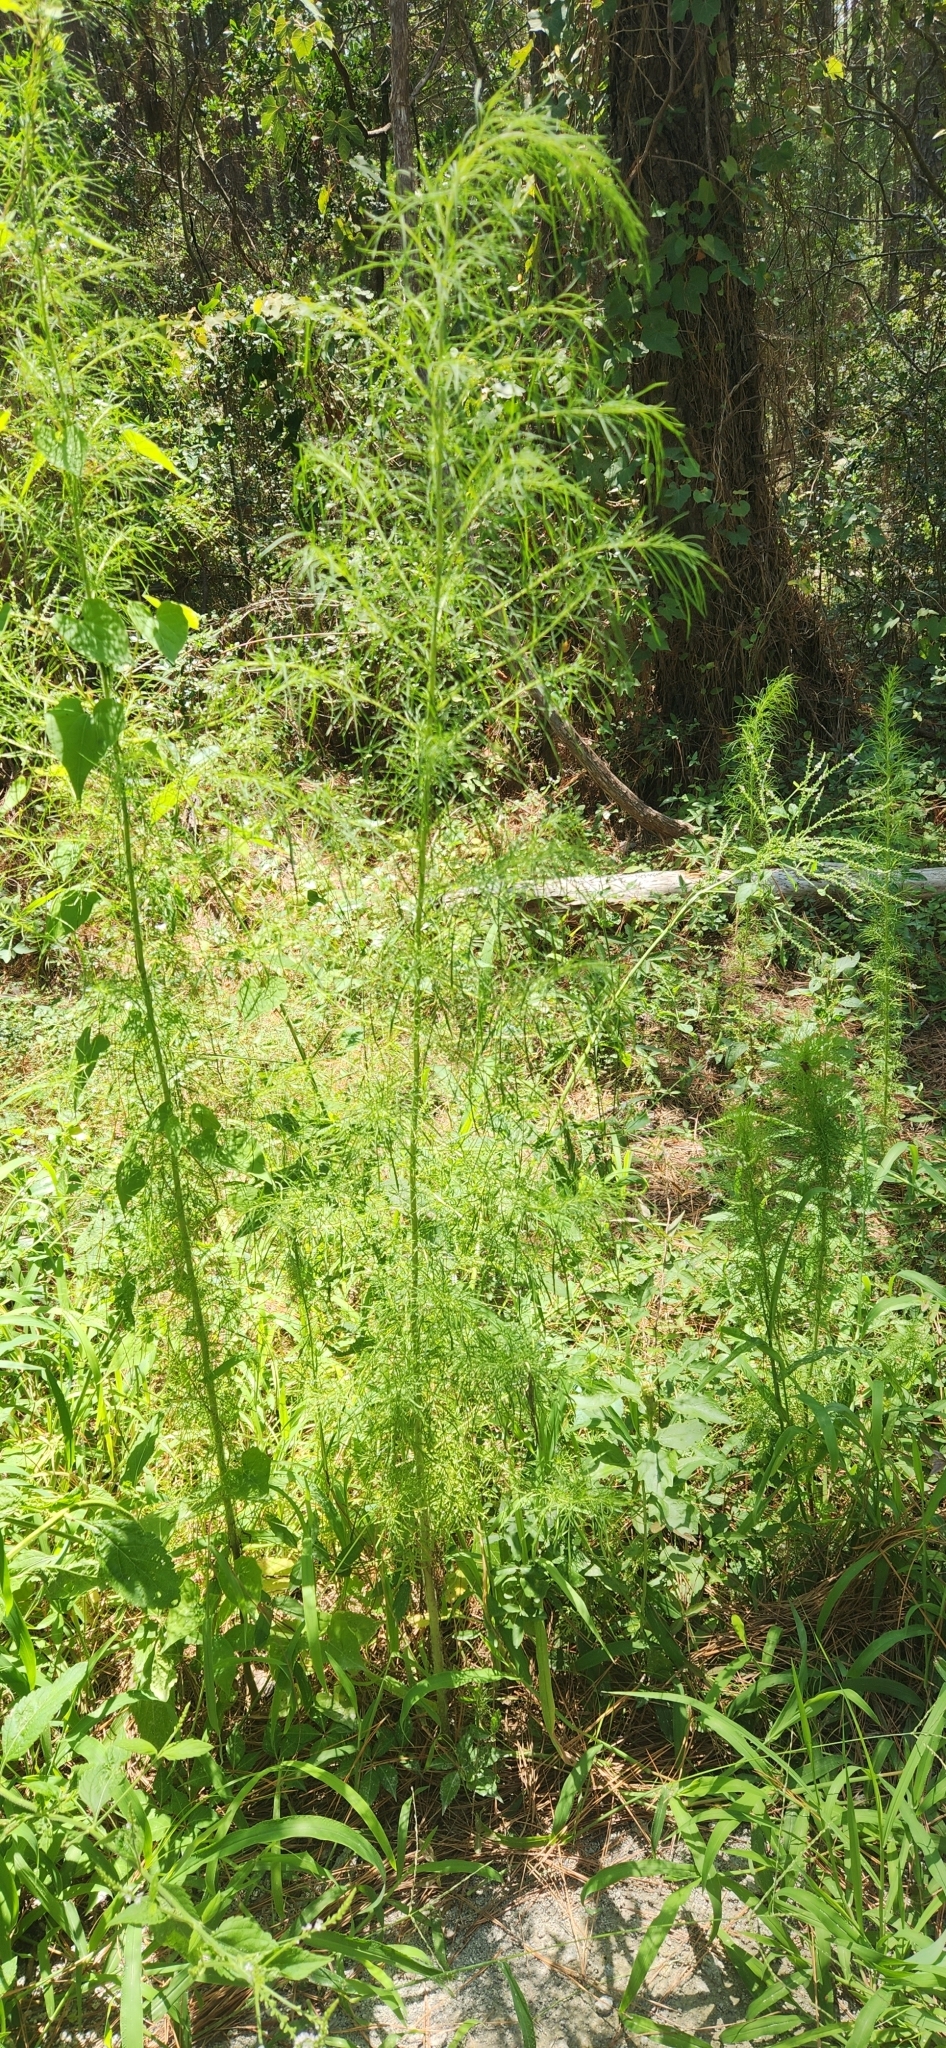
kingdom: Plantae
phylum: Tracheophyta
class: Magnoliopsida
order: Asterales
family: Asteraceae
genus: Eupatorium
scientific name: Eupatorium capillifolium
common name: Dog-fennel
